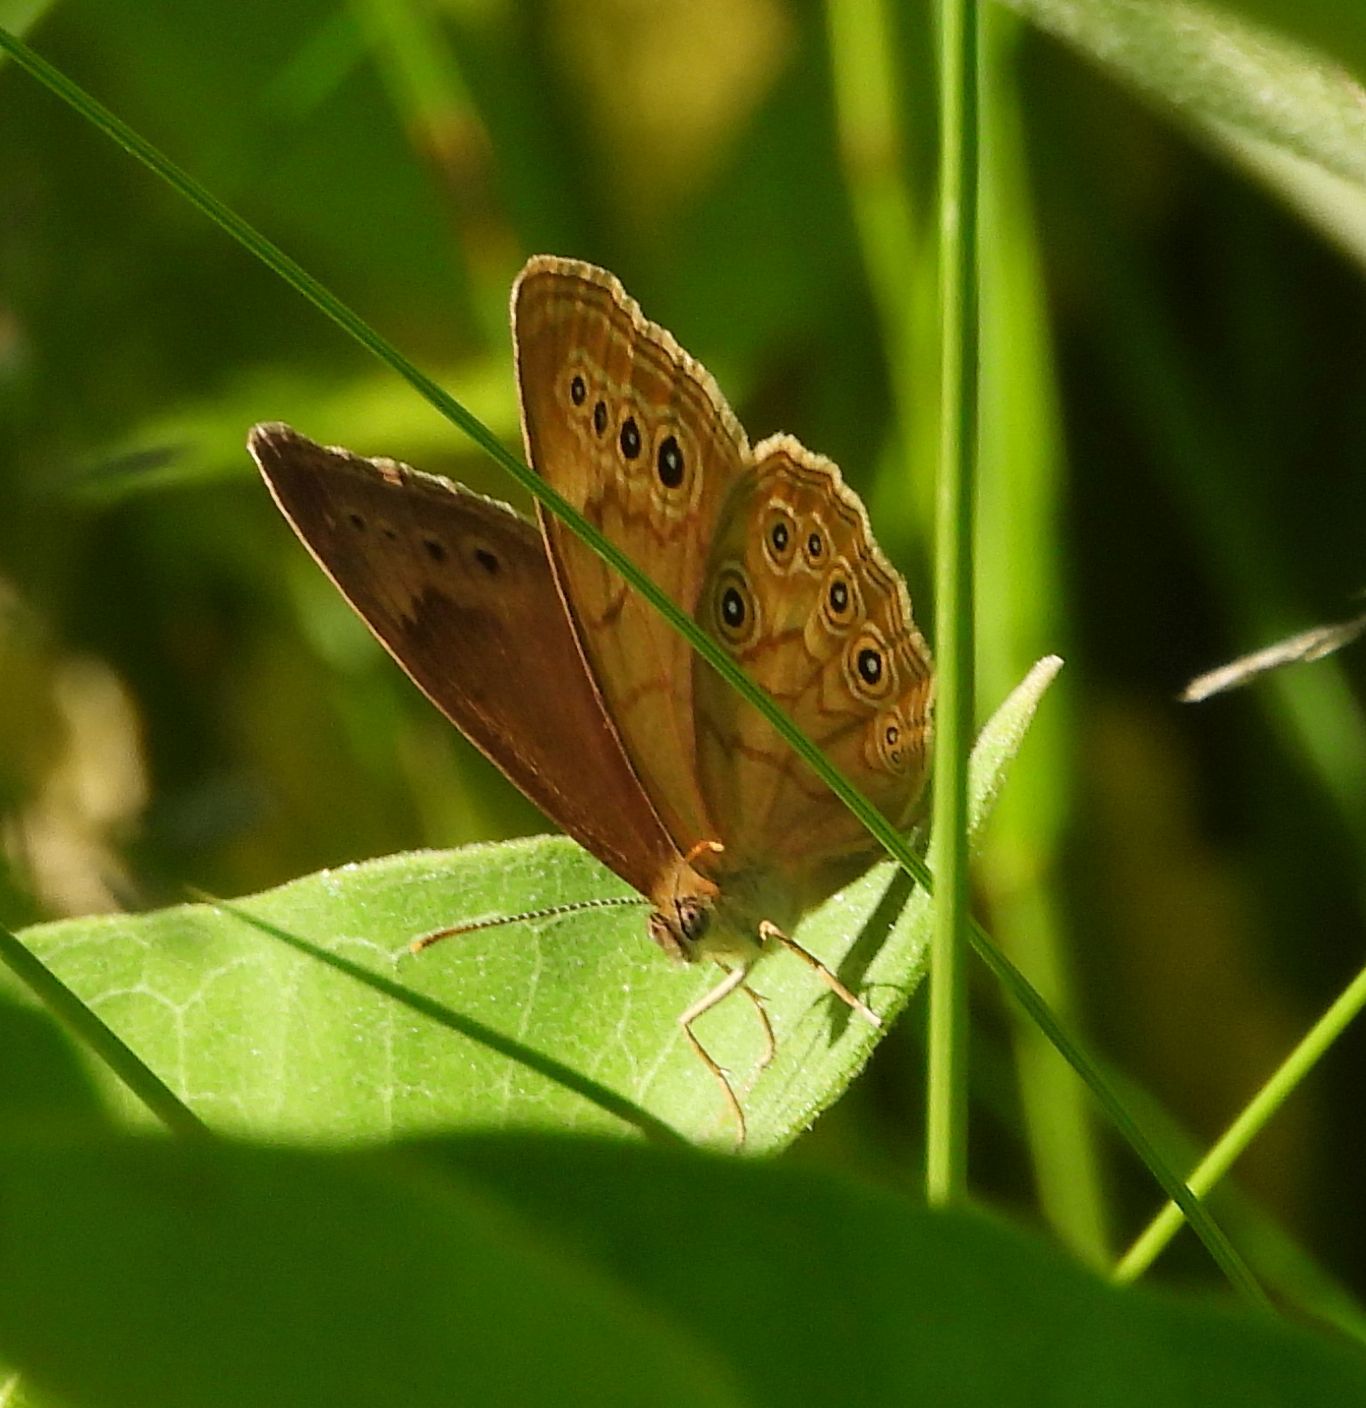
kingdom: Animalia
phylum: Arthropoda
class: Insecta
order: Lepidoptera
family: Nymphalidae
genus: Lethe
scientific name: Lethe eurydice
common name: Eyed brown
